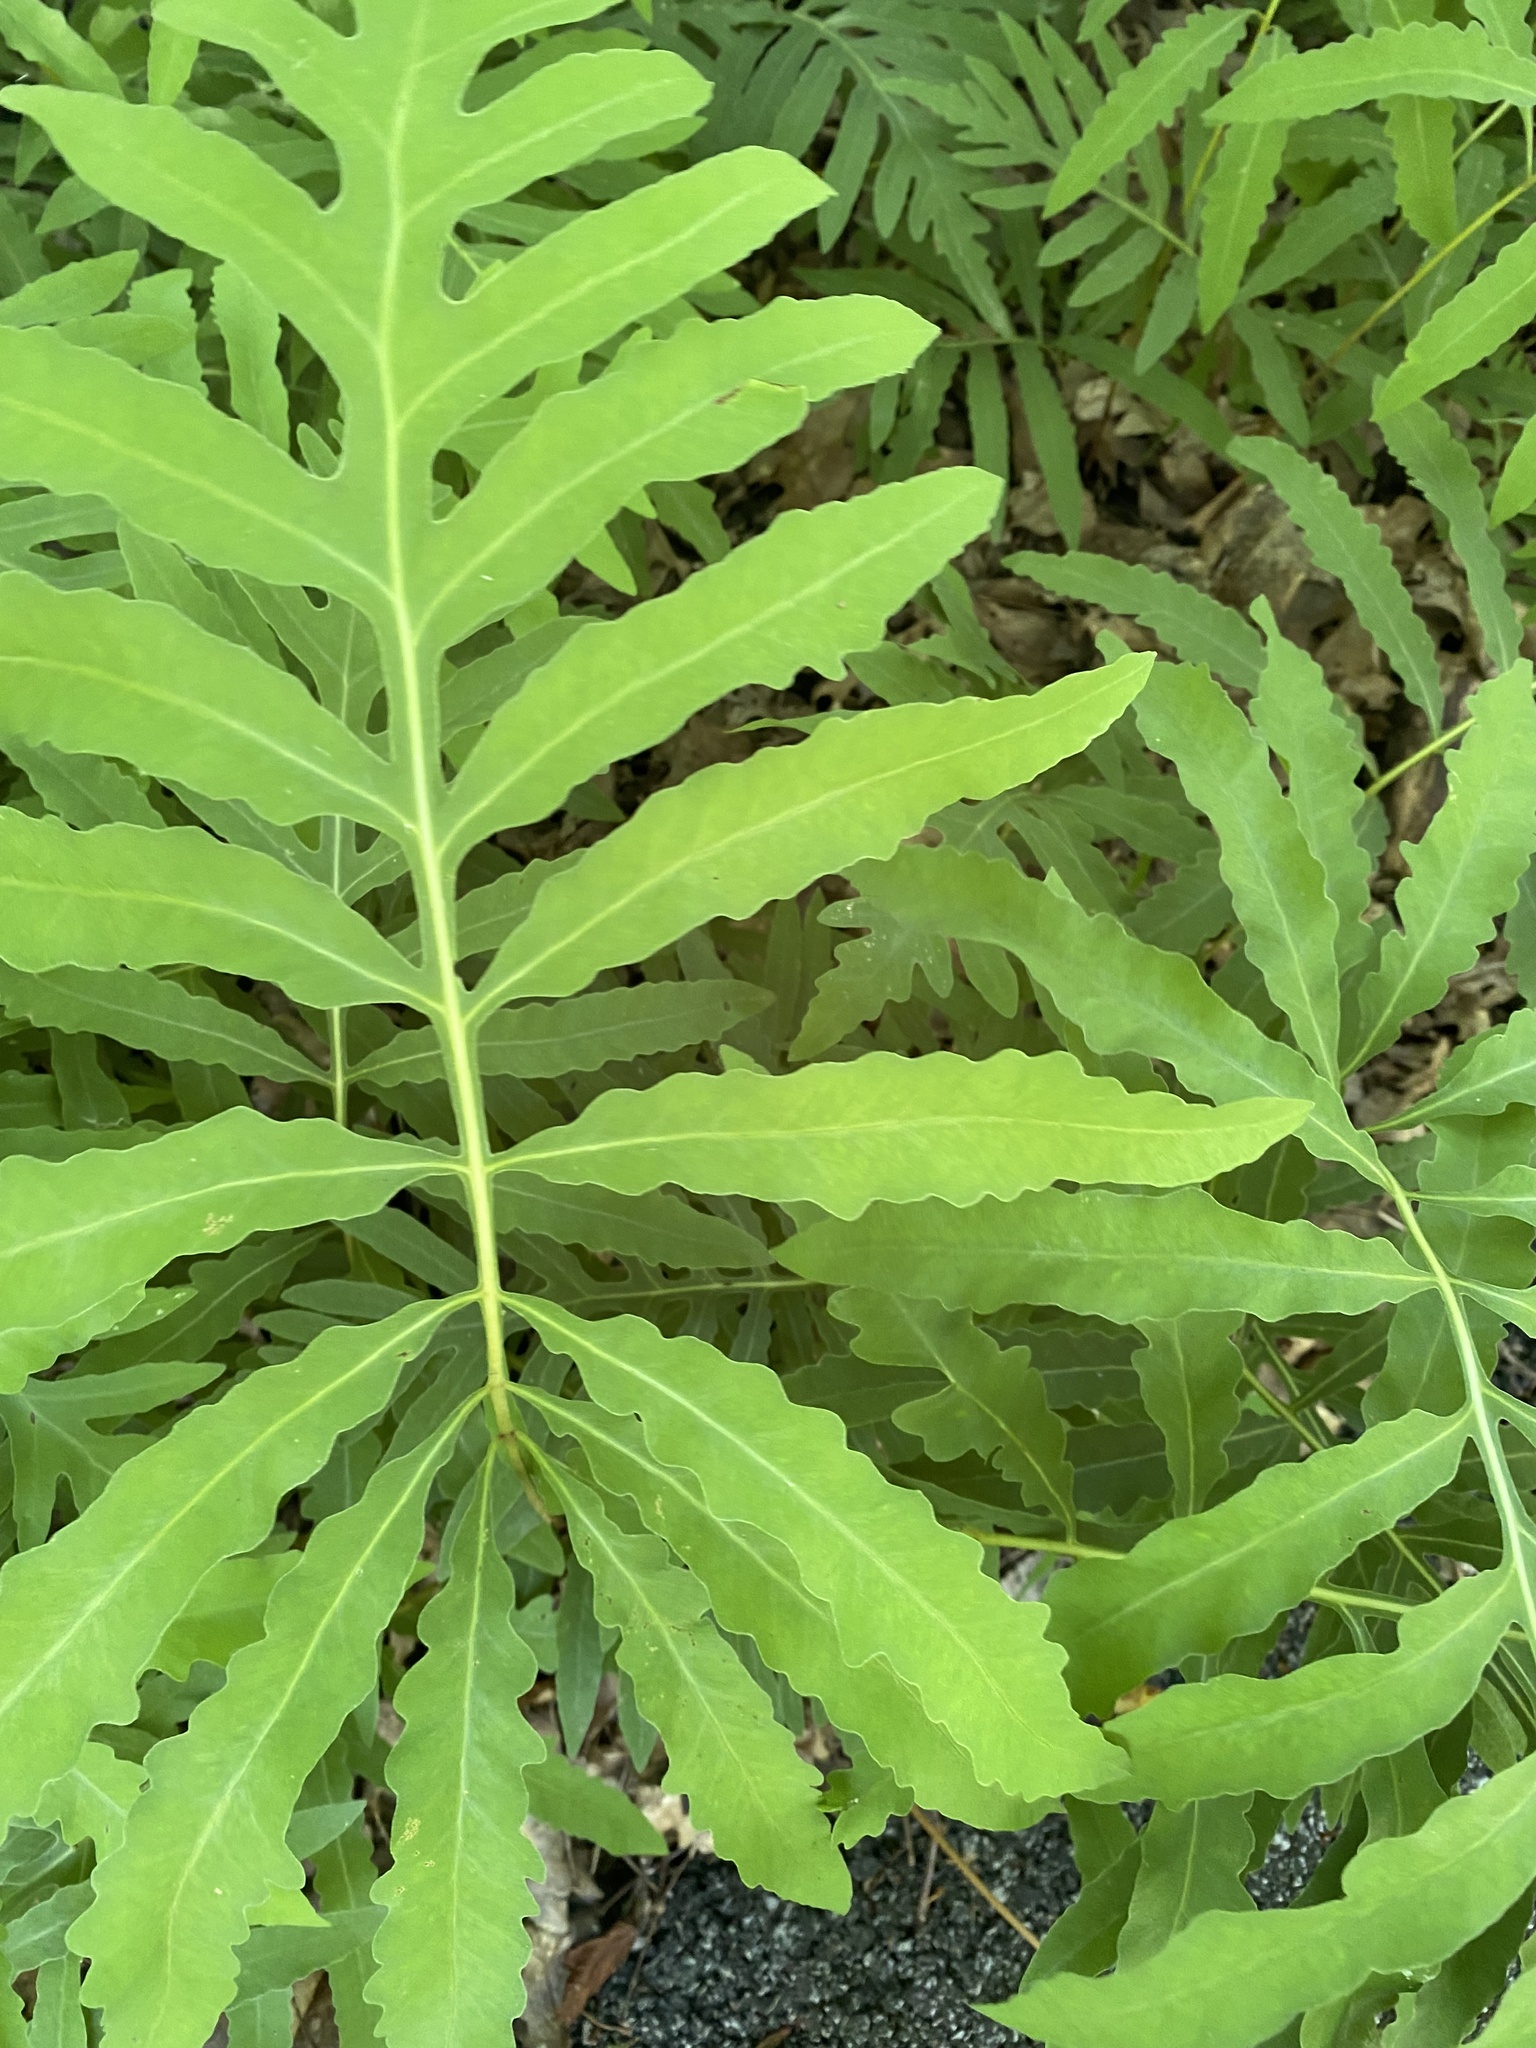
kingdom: Plantae
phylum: Tracheophyta
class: Polypodiopsida
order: Polypodiales
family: Onocleaceae
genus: Onoclea
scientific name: Onoclea sensibilis
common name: Sensitive fern
